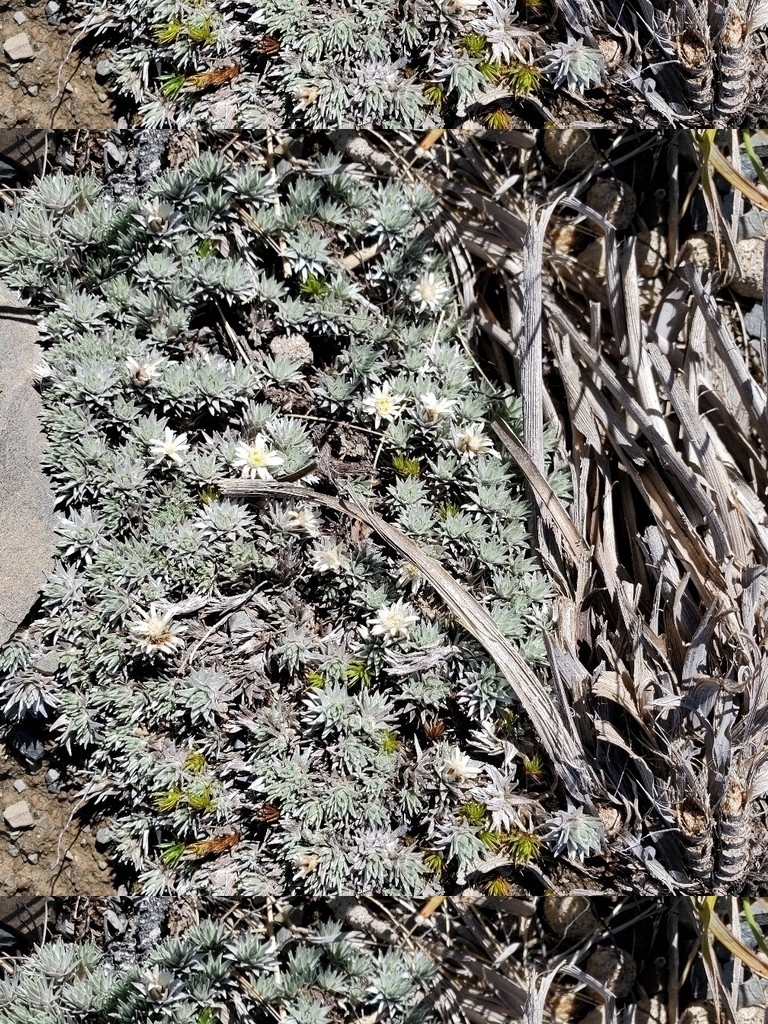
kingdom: Plantae
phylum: Tracheophyta
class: Magnoliopsida
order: Asterales
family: Asteraceae
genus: Raoulia
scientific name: Raoulia grandiflora
